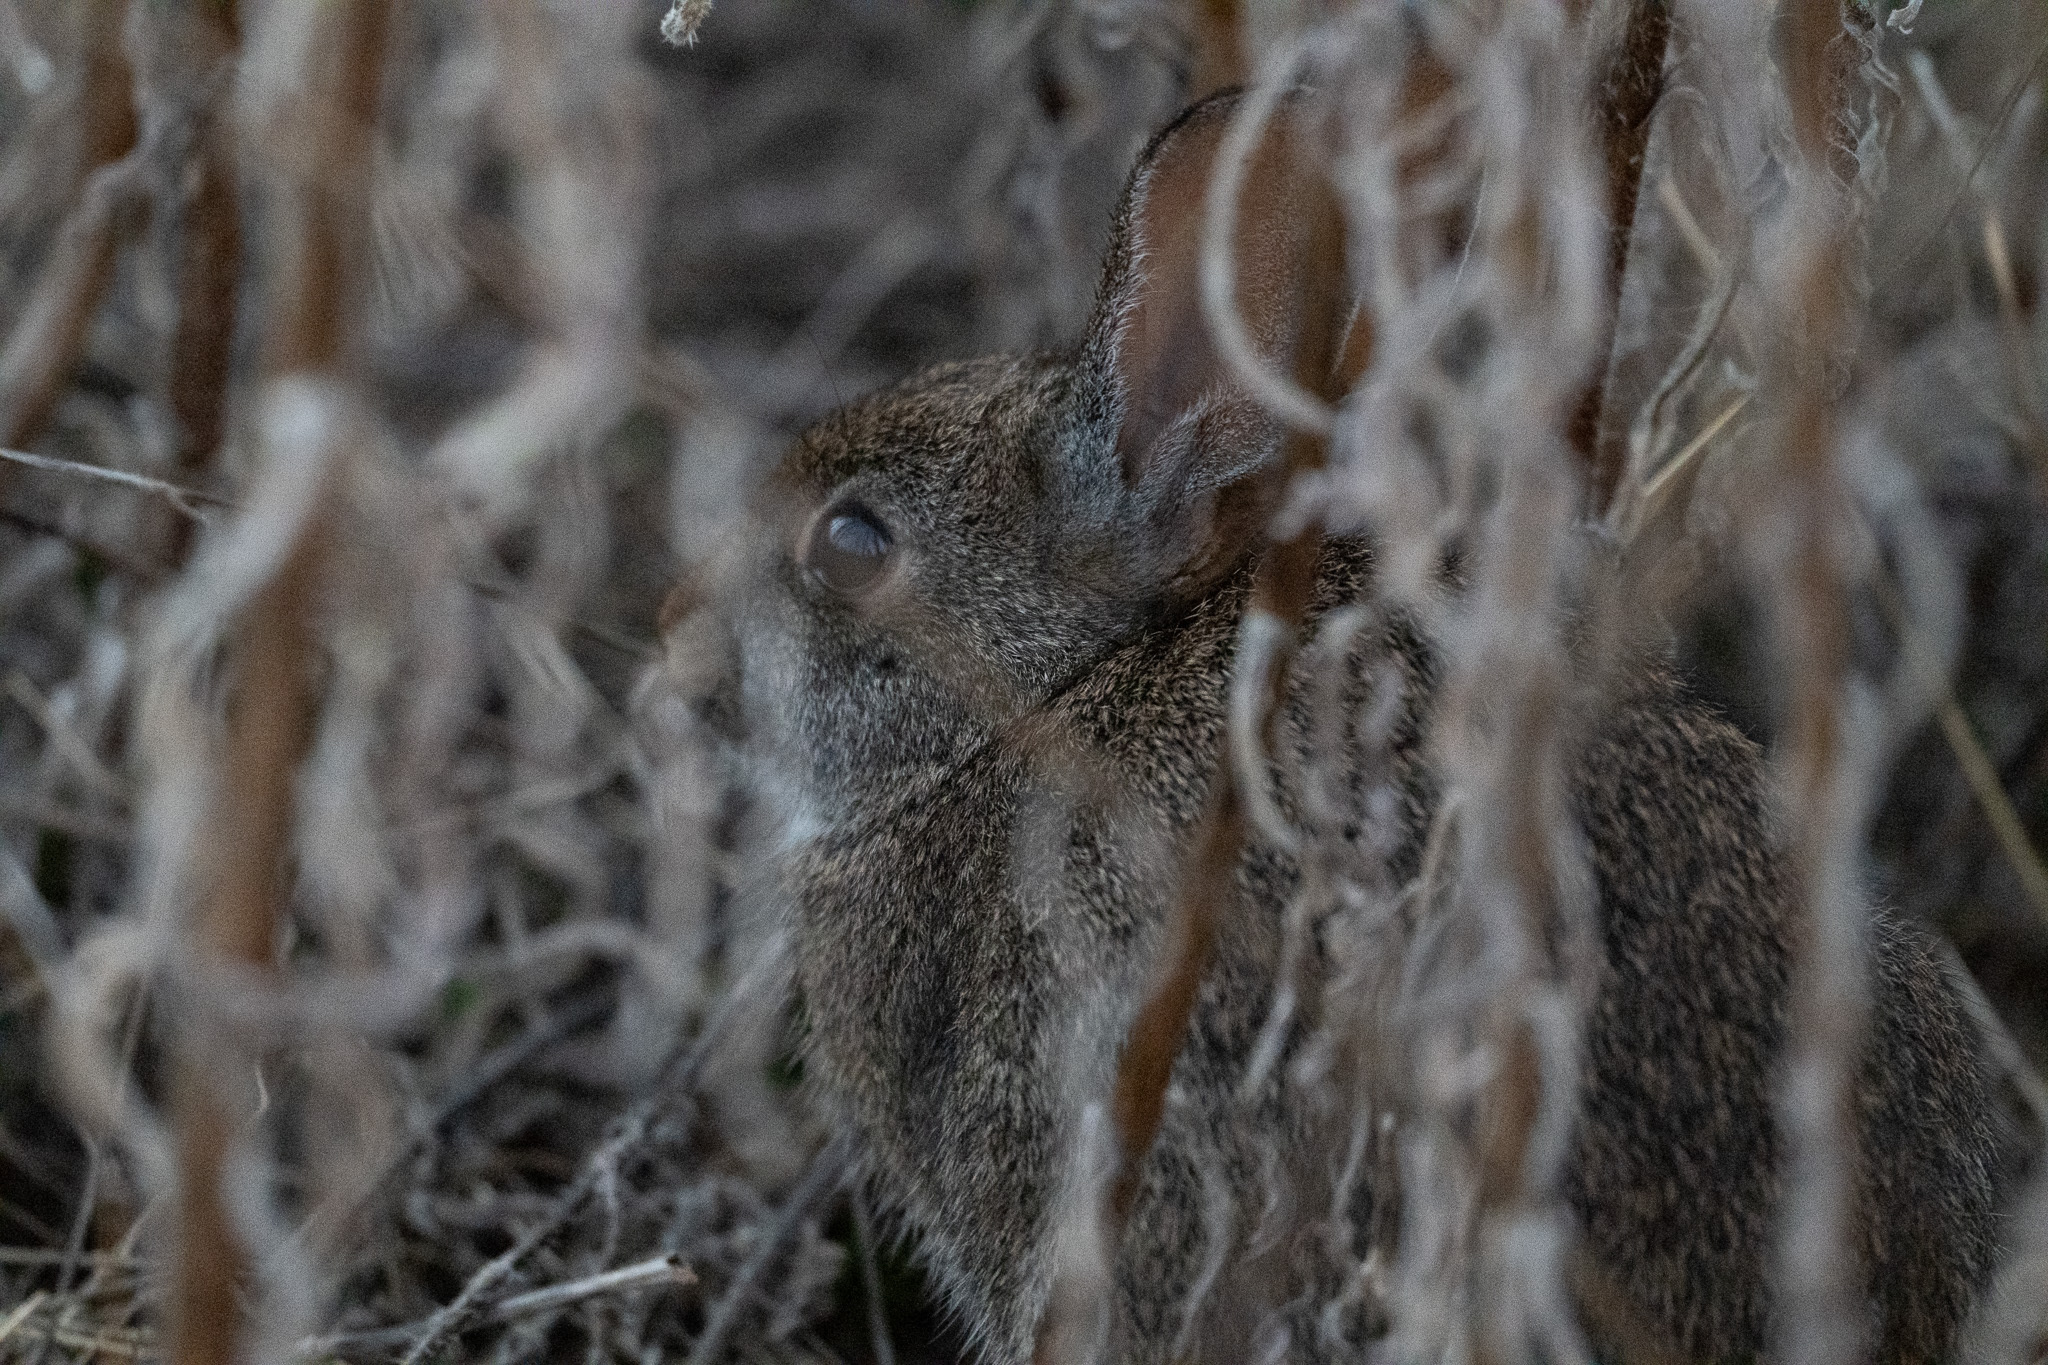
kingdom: Animalia
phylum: Chordata
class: Mammalia
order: Lagomorpha
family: Leporidae
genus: Sylvilagus
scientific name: Sylvilagus bachmani
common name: Brush rabbit
